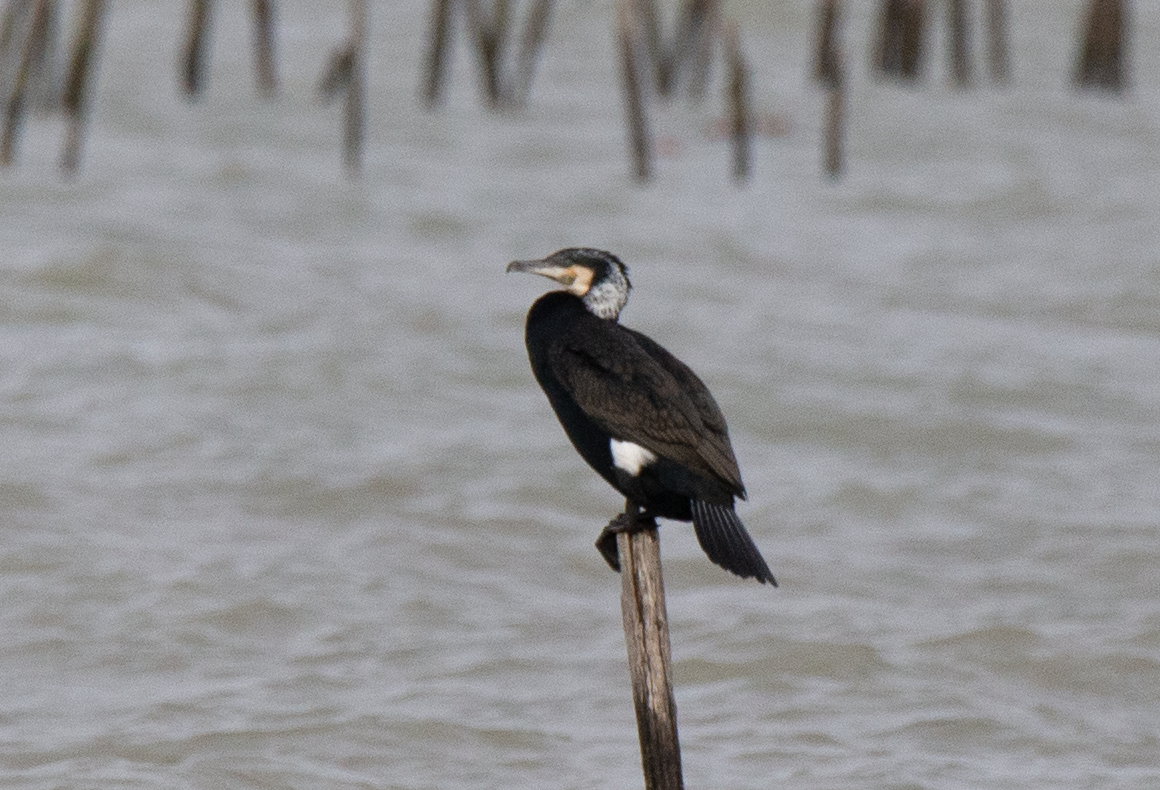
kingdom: Animalia
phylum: Chordata
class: Aves
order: Suliformes
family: Phalacrocoracidae
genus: Phalacrocorax
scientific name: Phalacrocorax carbo
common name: Great cormorant
